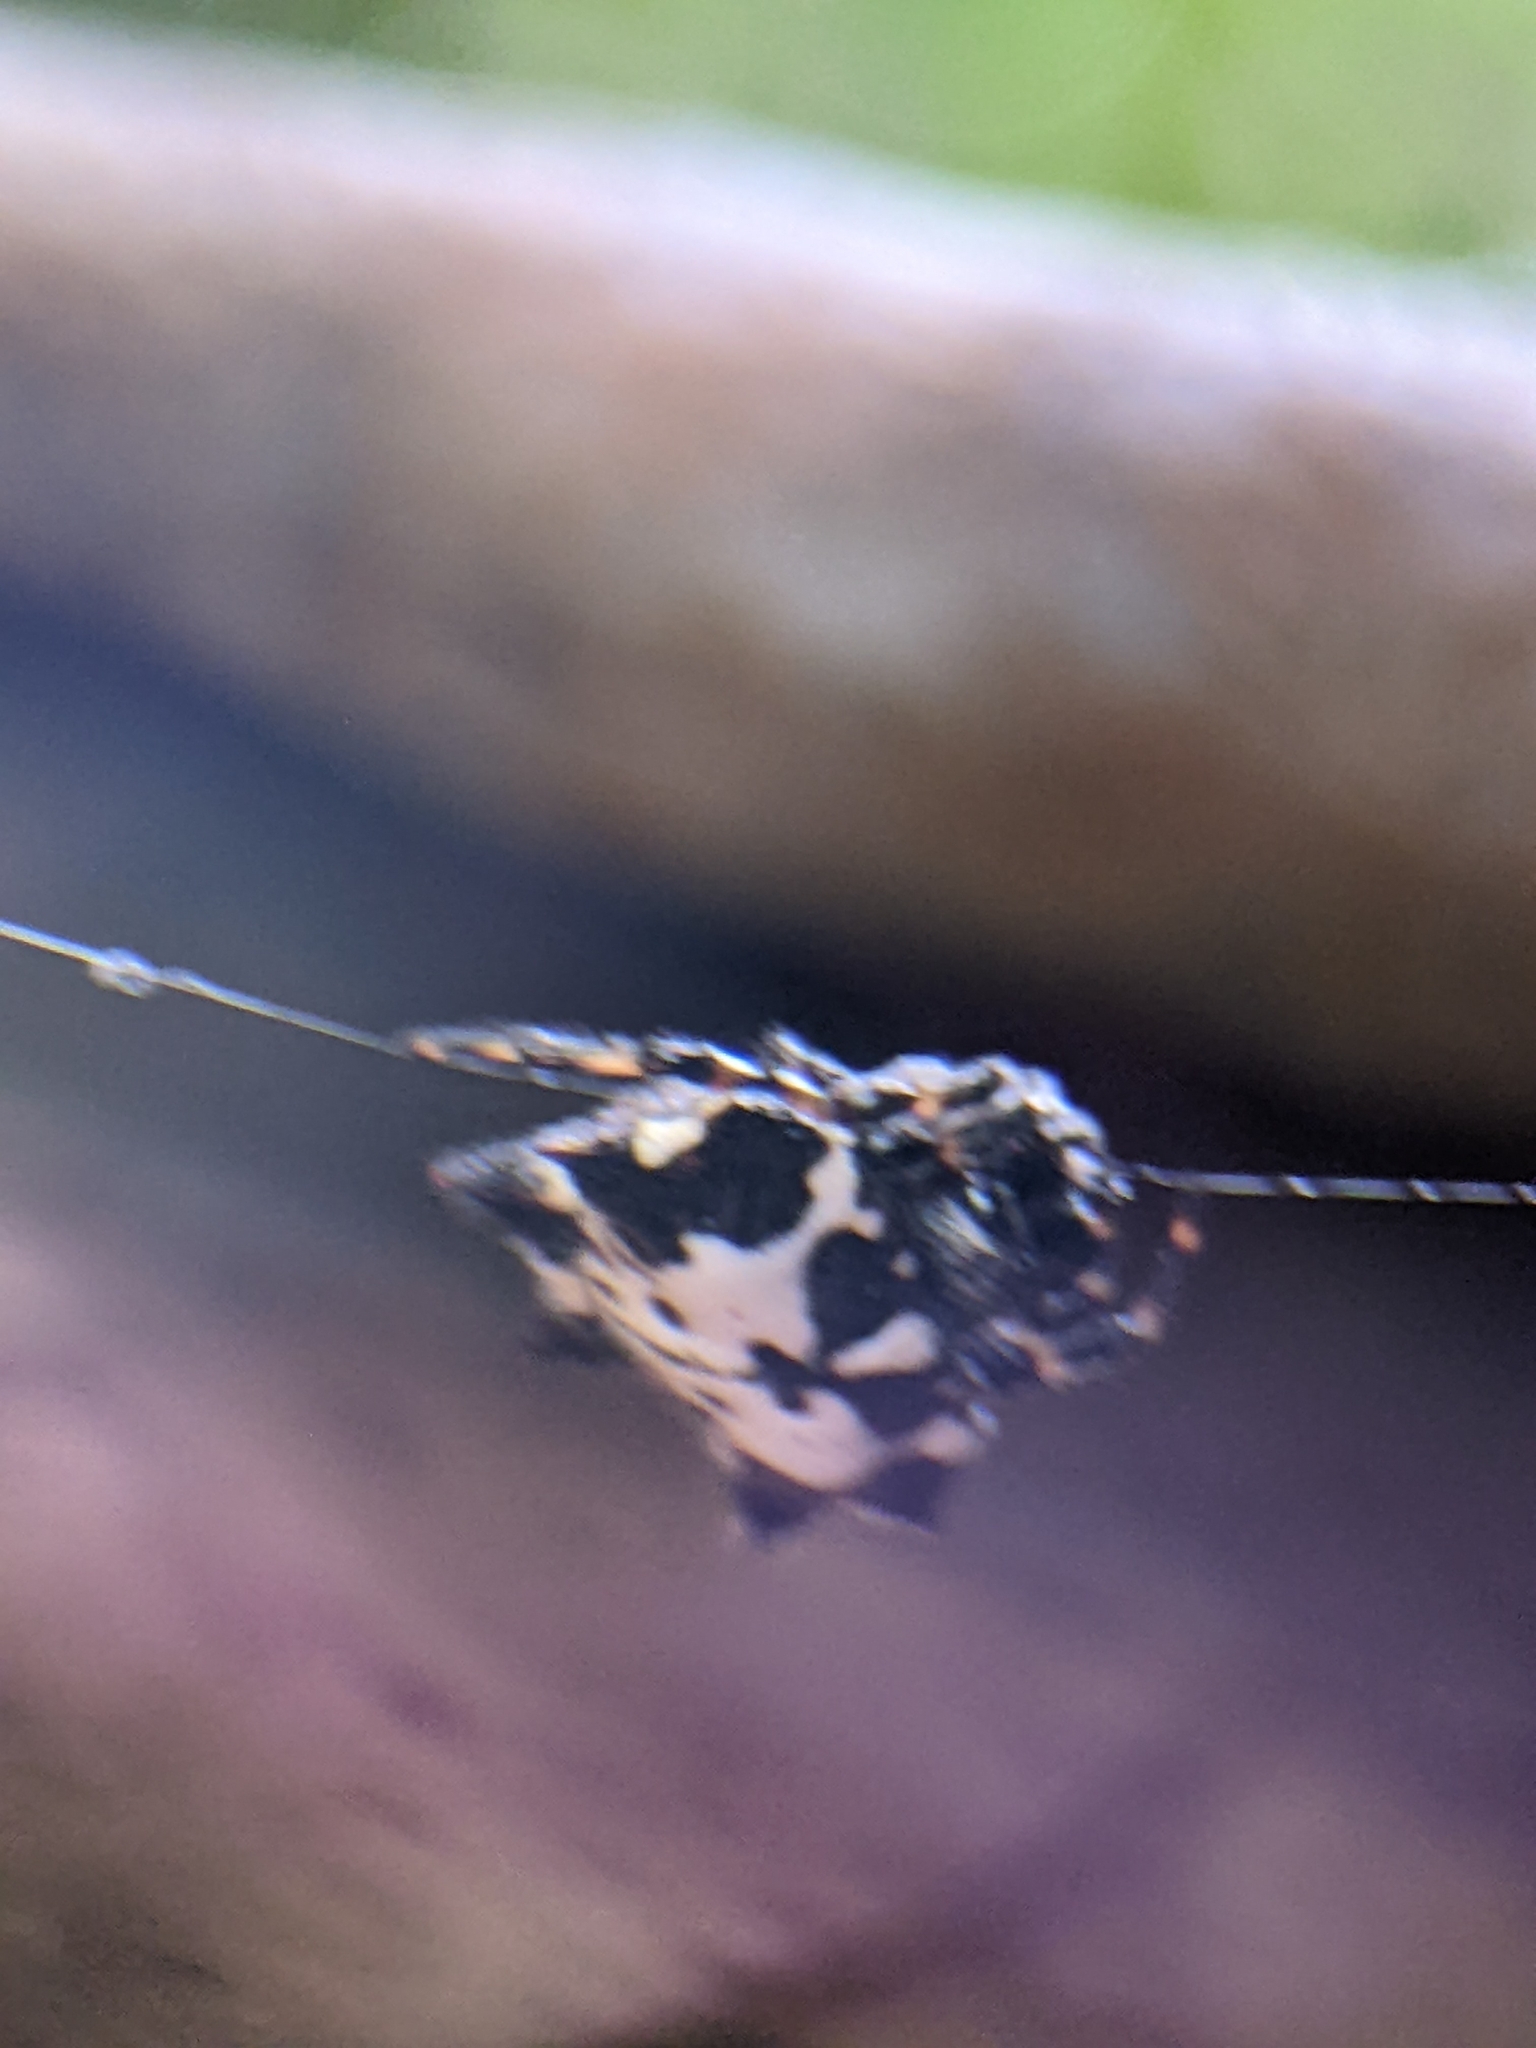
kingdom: Animalia
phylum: Arthropoda
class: Arachnida
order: Araneae
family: Araneidae
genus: Gasteracantha
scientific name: Gasteracantha kuhli
